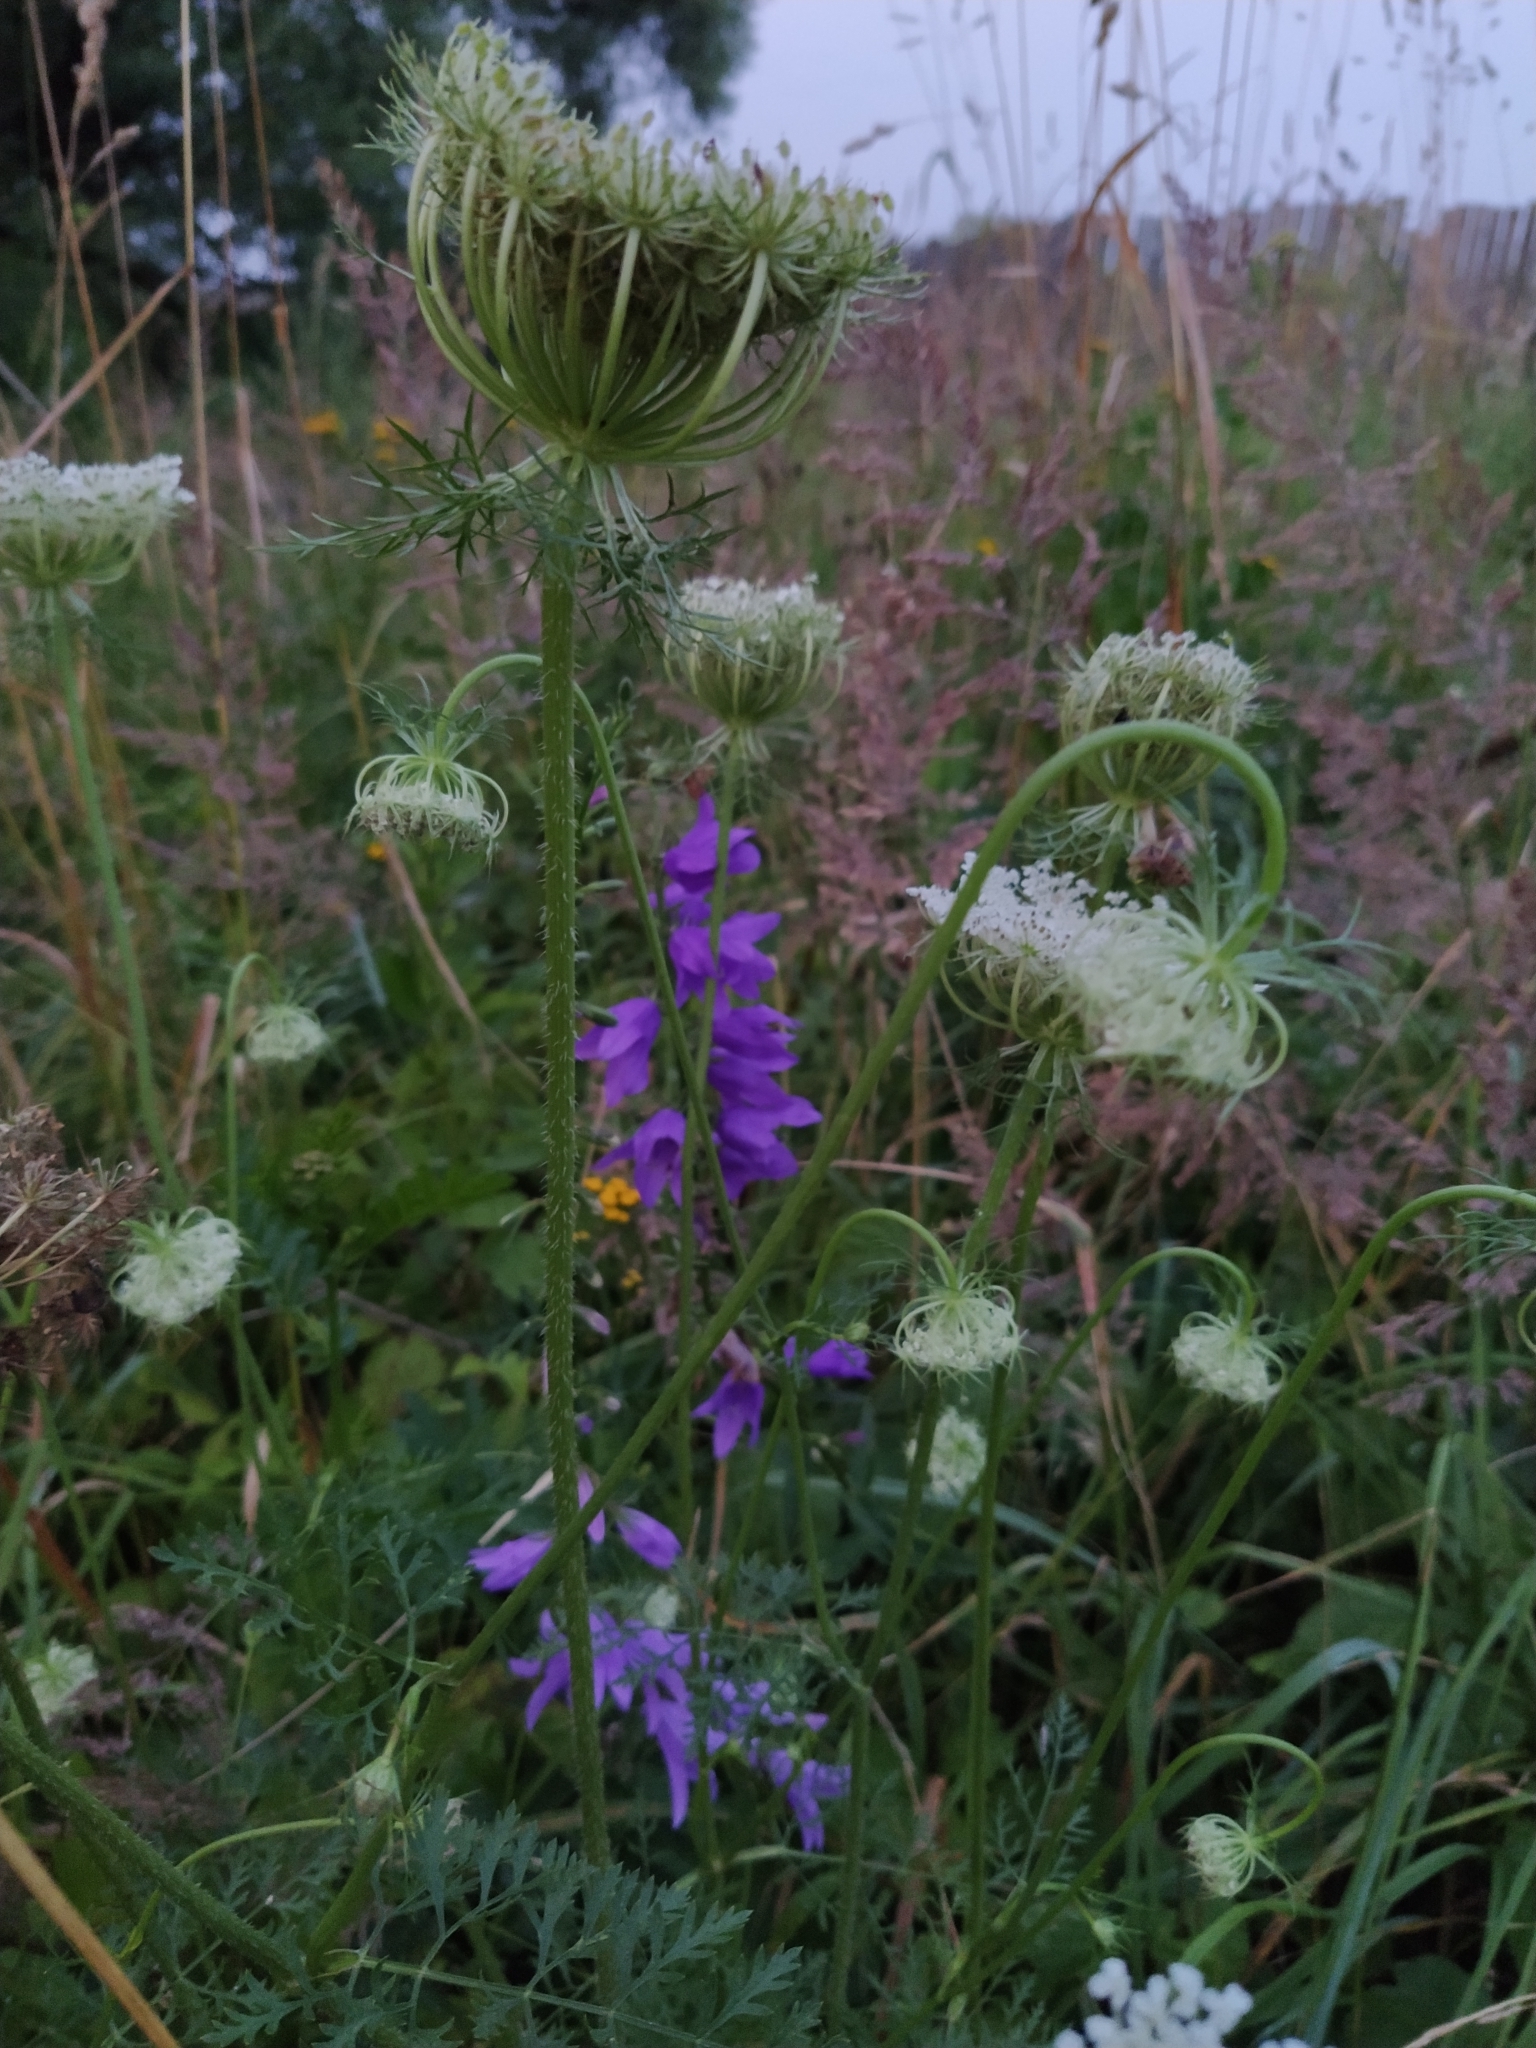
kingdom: Plantae
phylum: Tracheophyta
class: Magnoliopsida
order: Apiales
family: Apiaceae
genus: Daucus
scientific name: Daucus carota
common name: Wild carrot
